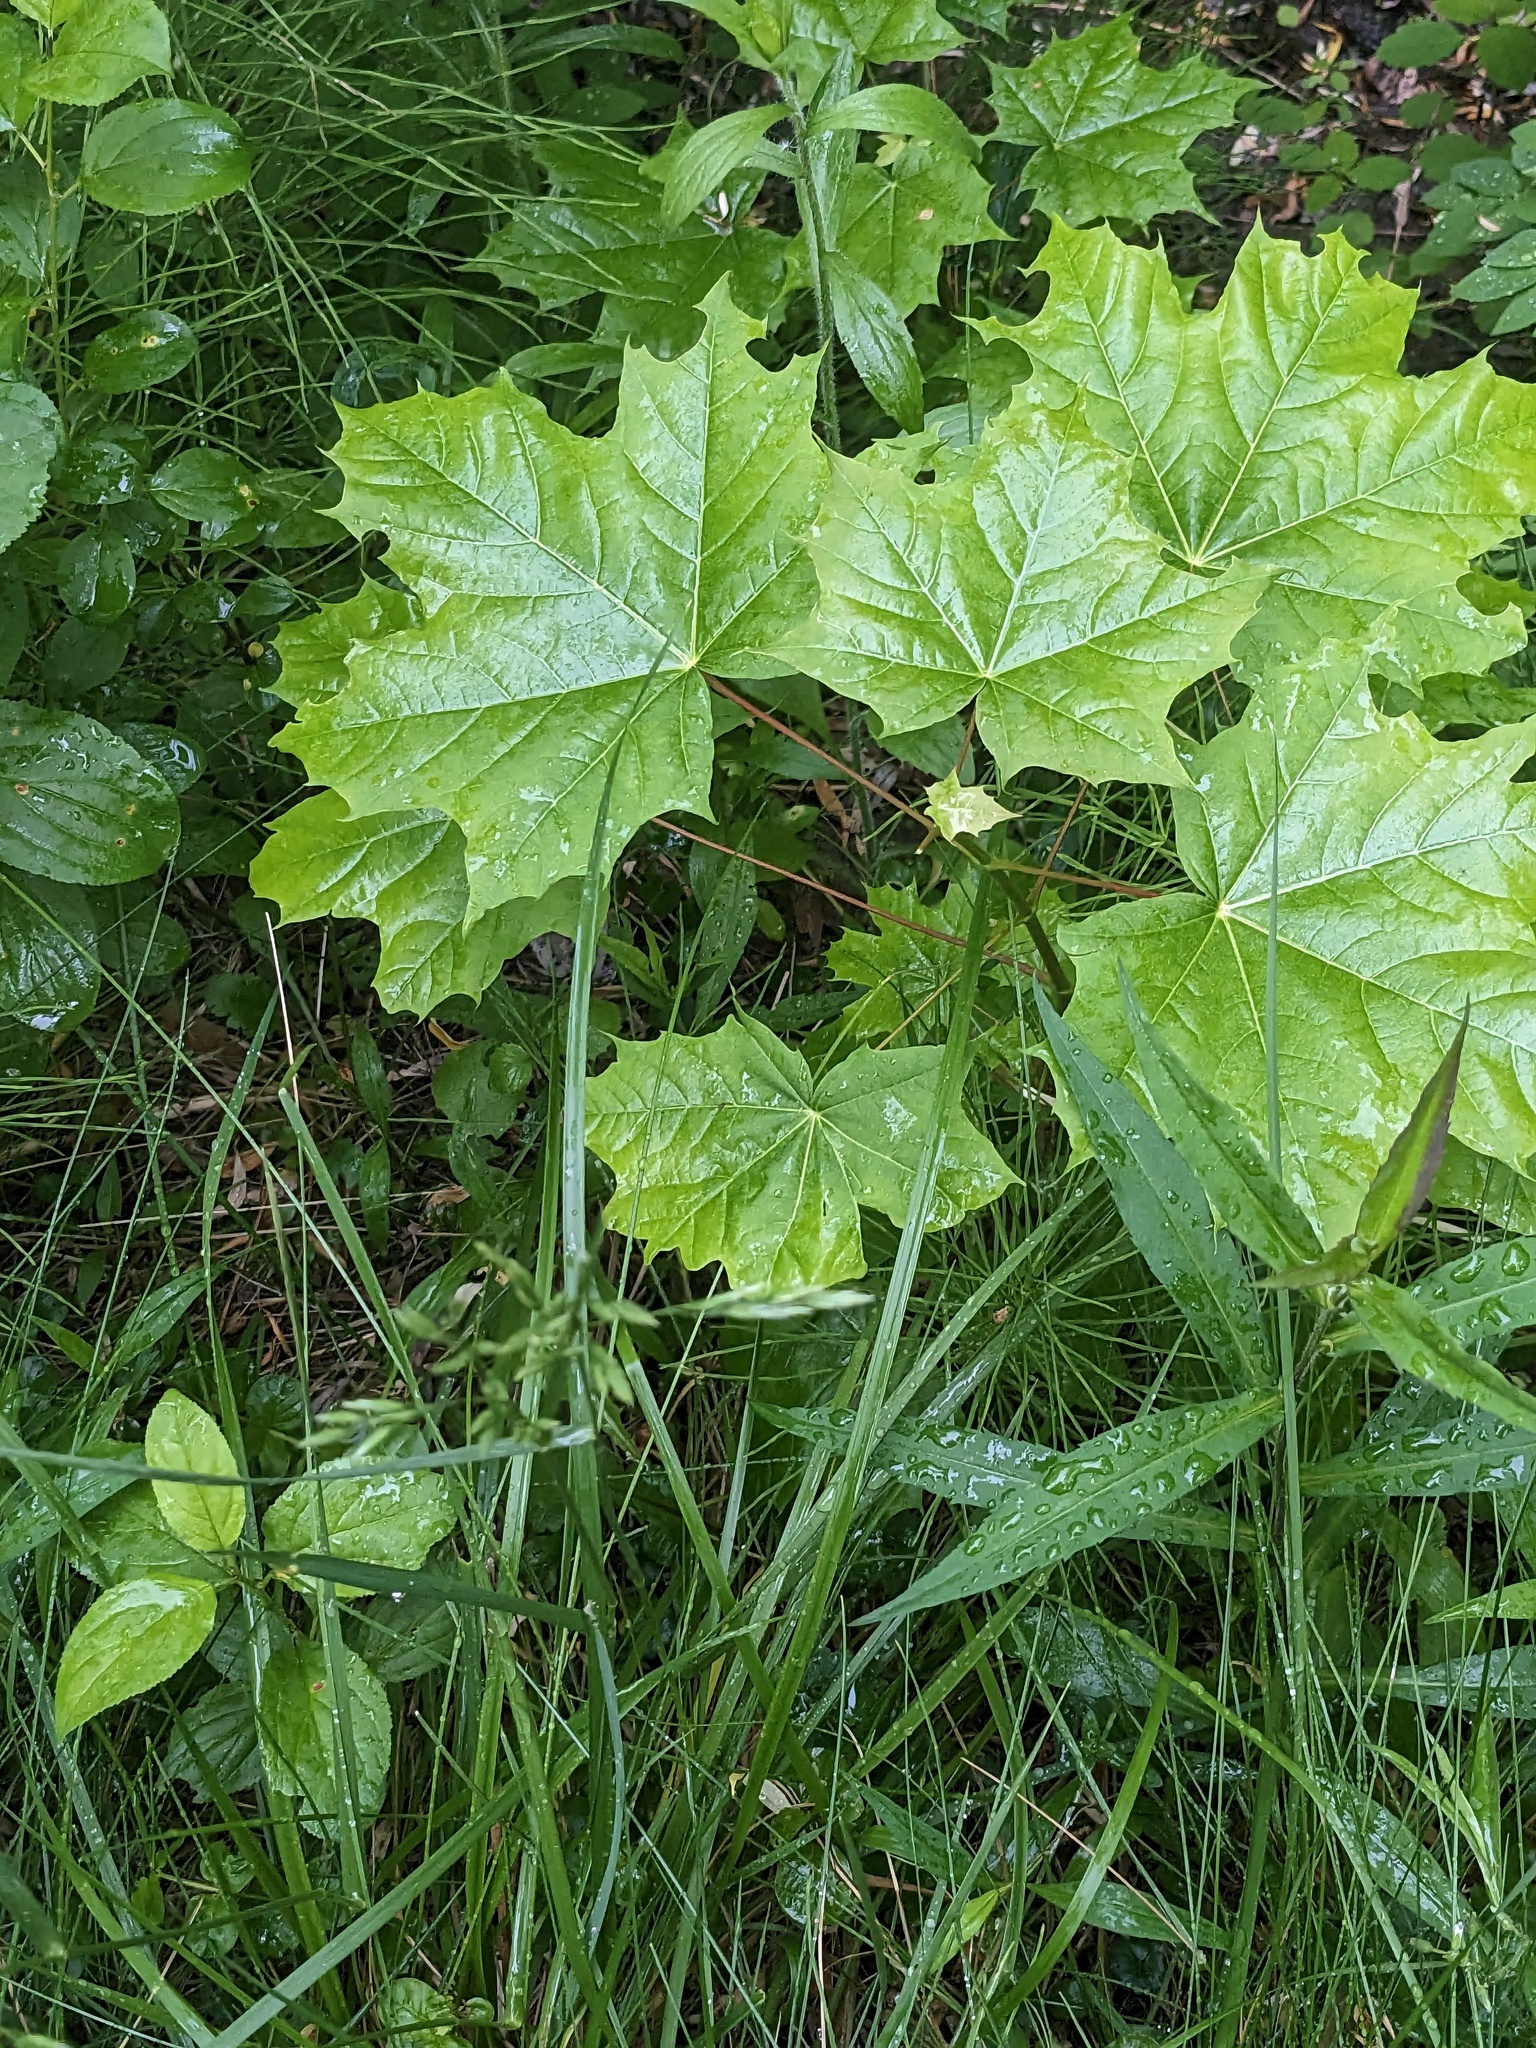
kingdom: Plantae
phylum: Tracheophyta
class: Magnoliopsida
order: Sapindales
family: Sapindaceae
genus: Acer
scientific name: Acer platanoides
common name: Norway maple
